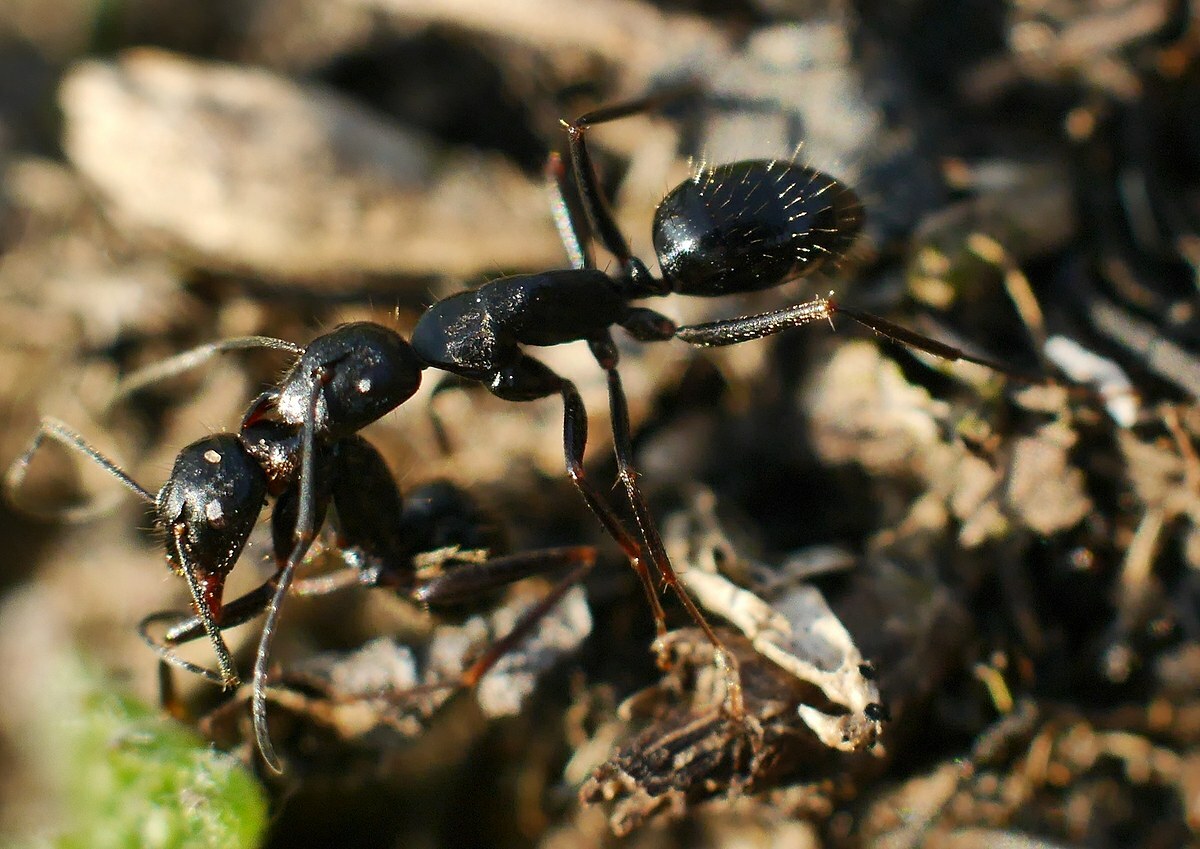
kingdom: Animalia
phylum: Arthropoda
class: Insecta
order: Hymenoptera
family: Formicidae
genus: Camponotus
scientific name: Camponotus aethiops
